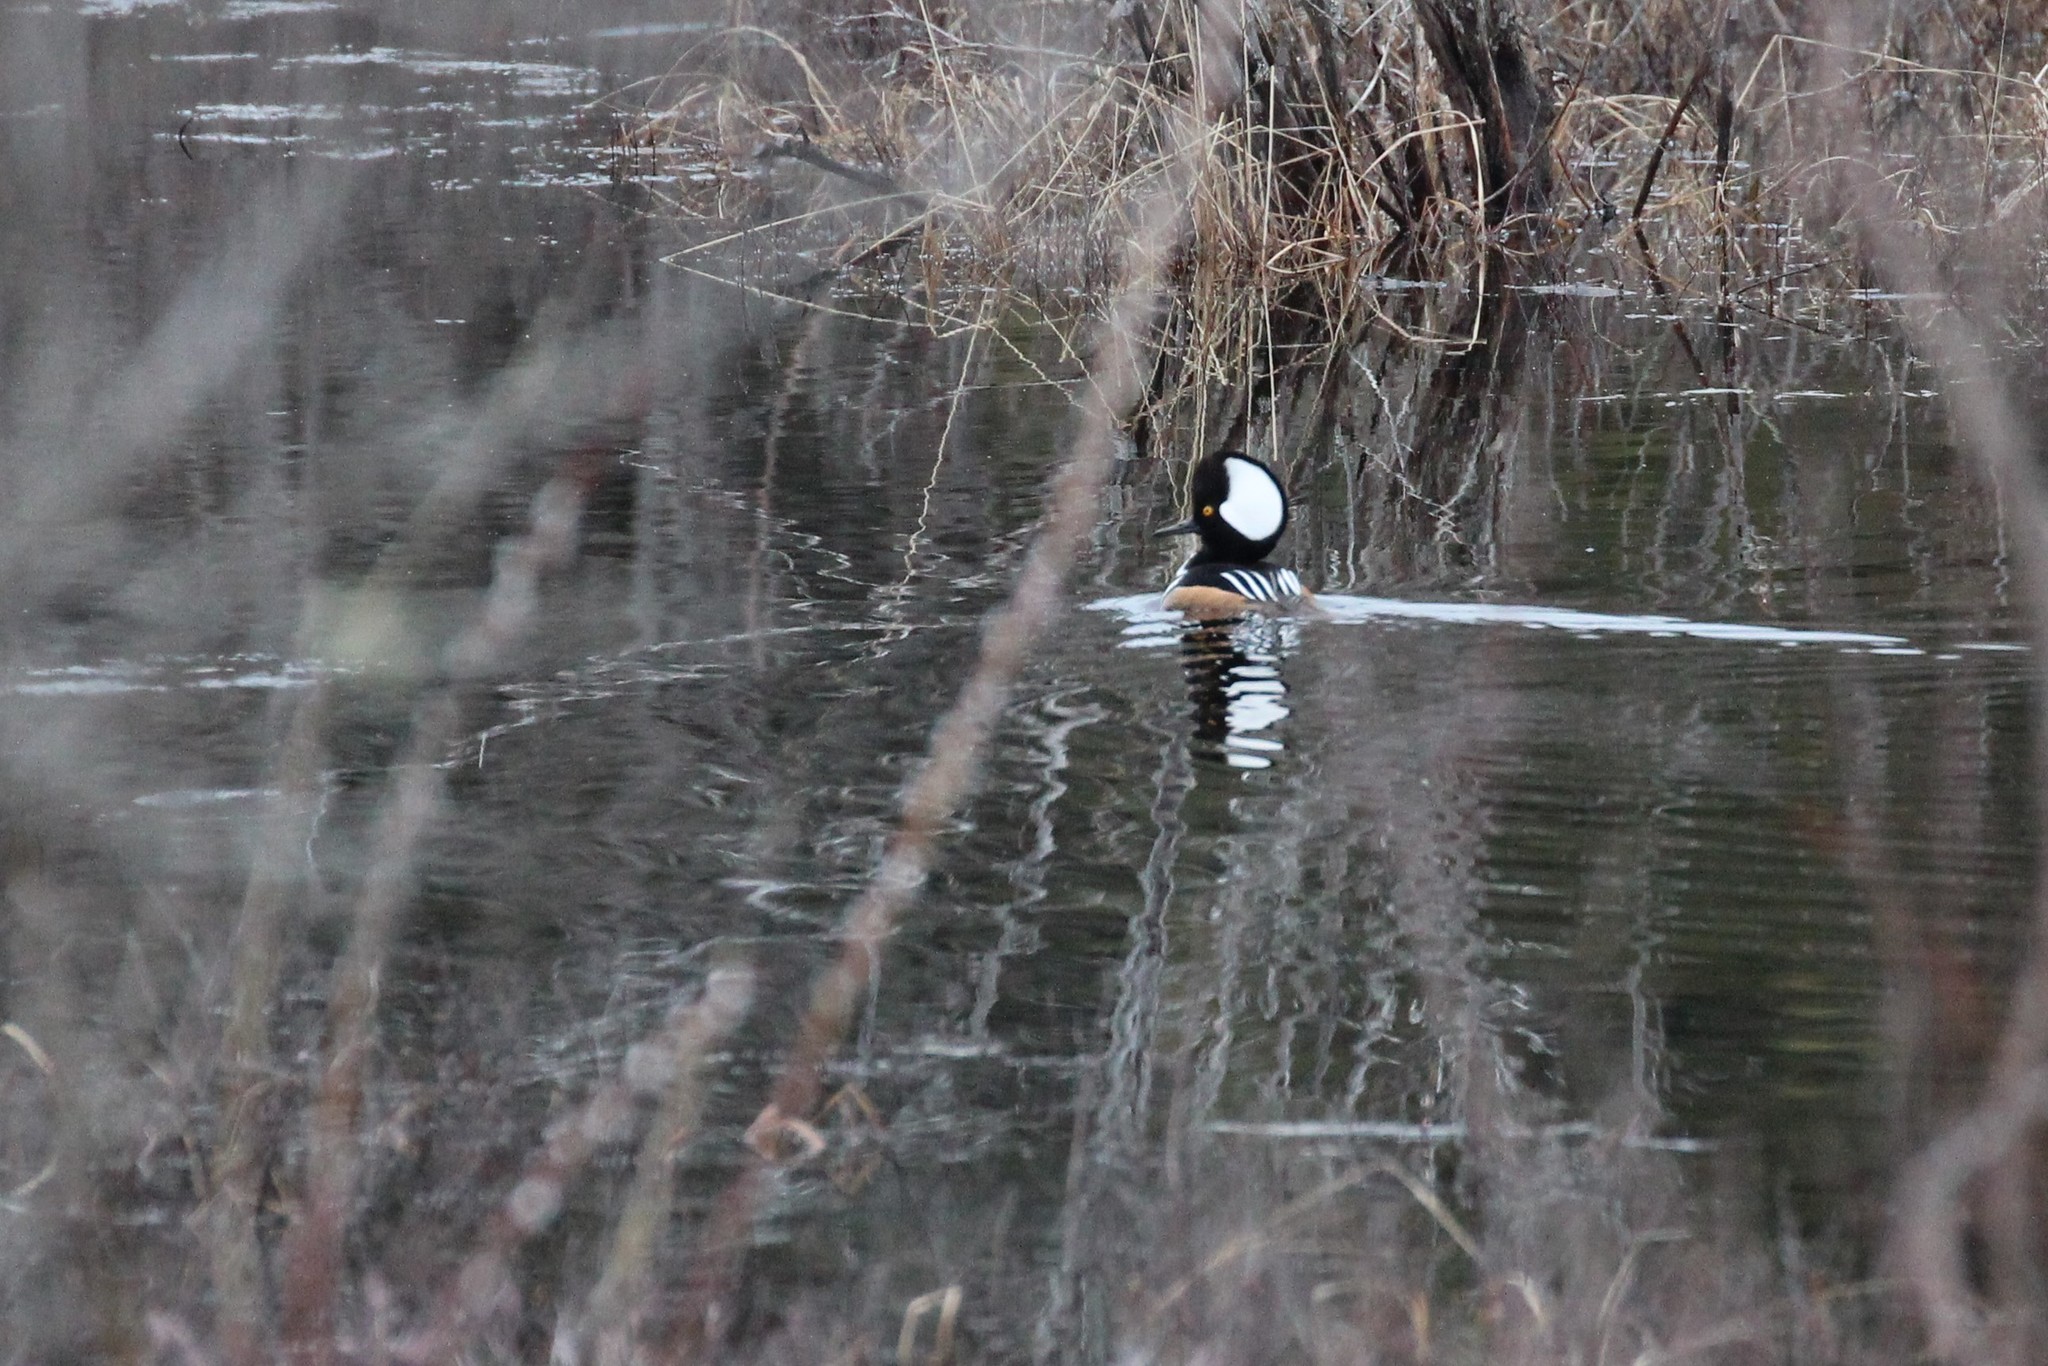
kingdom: Animalia
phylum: Chordata
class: Aves
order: Anseriformes
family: Anatidae
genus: Lophodytes
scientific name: Lophodytes cucullatus
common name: Hooded merganser
